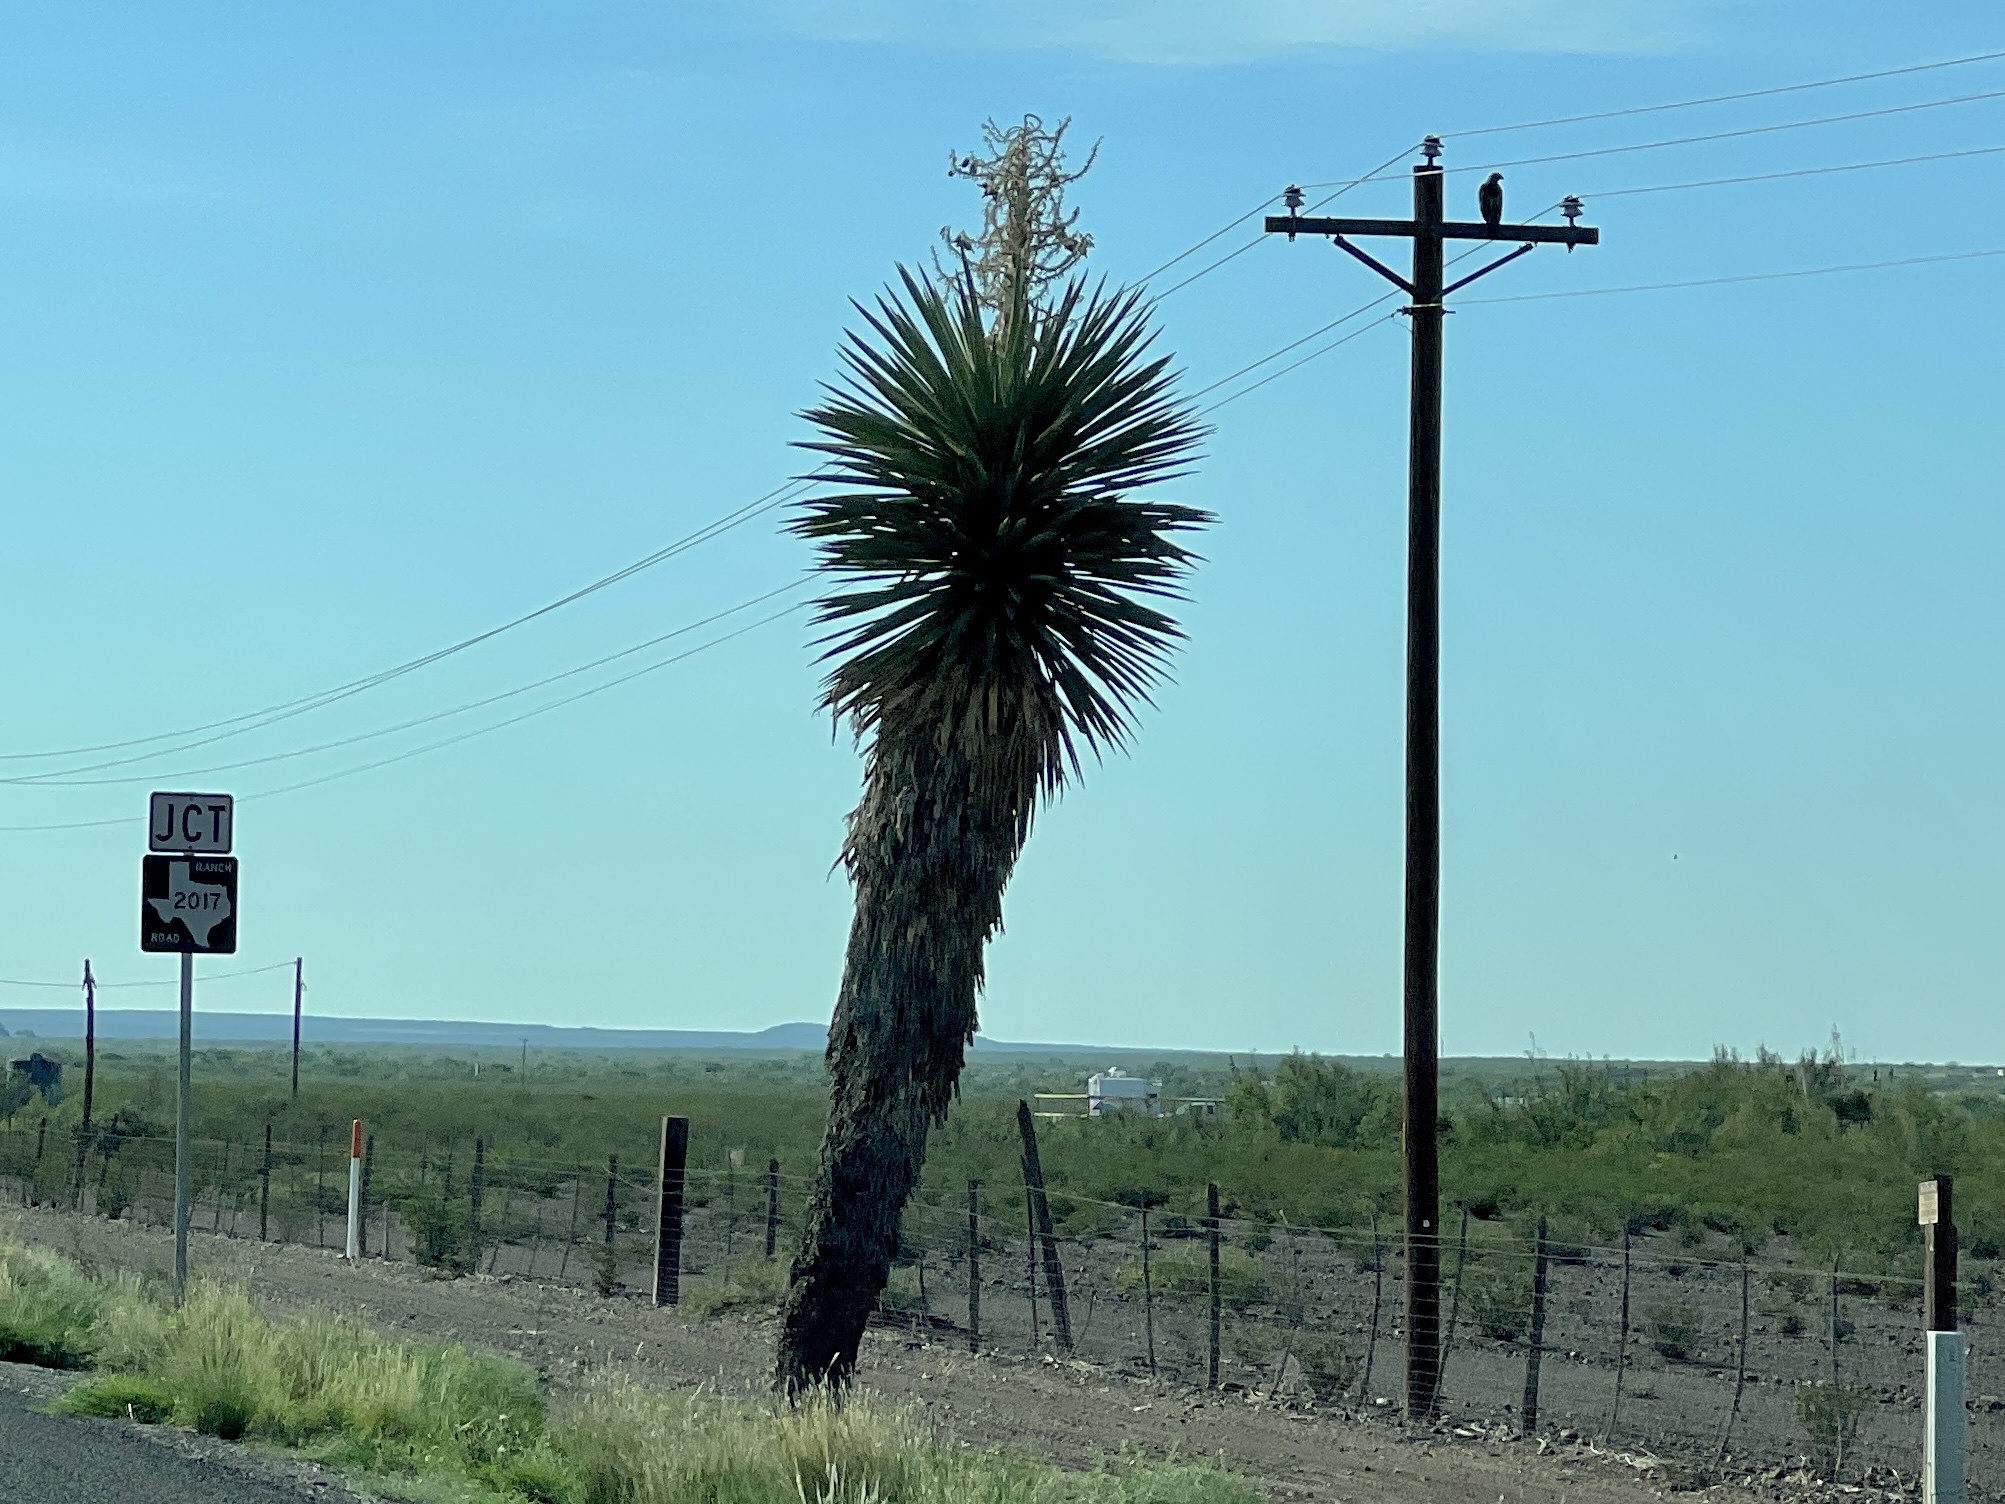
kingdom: Plantae
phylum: Tracheophyta
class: Liliopsida
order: Asparagales
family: Asparagaceae
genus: Yucca
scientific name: Yucca faxoniana
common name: Spanish dagger
